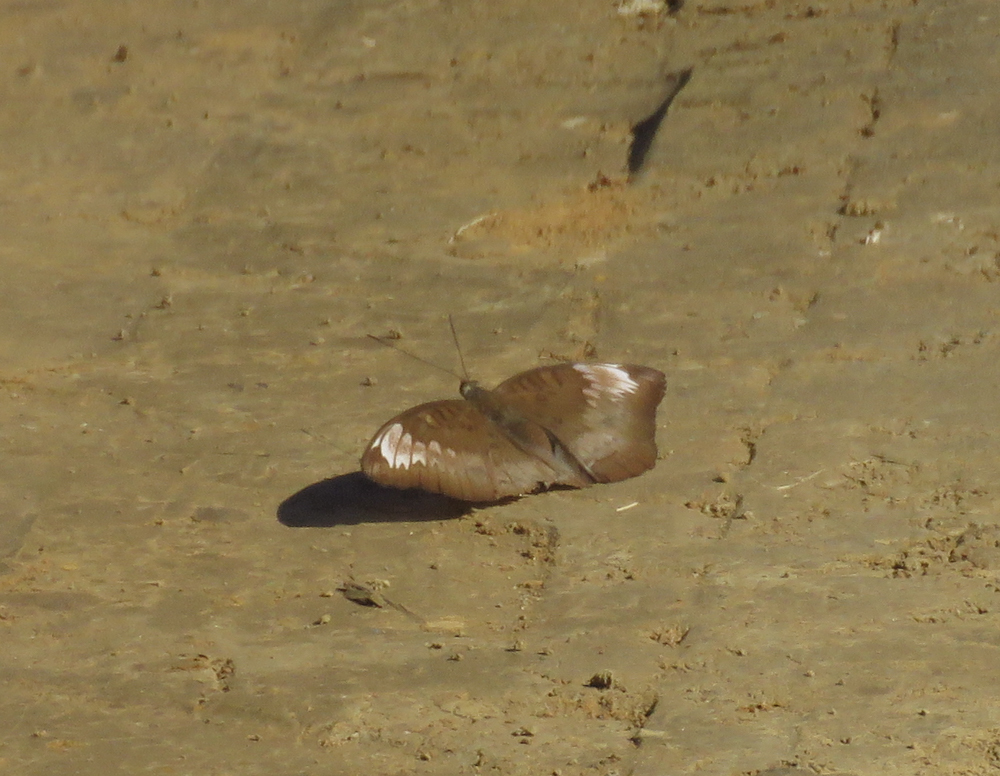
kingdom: Animalia
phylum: Arthropoda
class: Insecta
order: Lepidoptera
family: Nymphalidae
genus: Euthalia
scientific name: Euthalia monina
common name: Powdered baron
